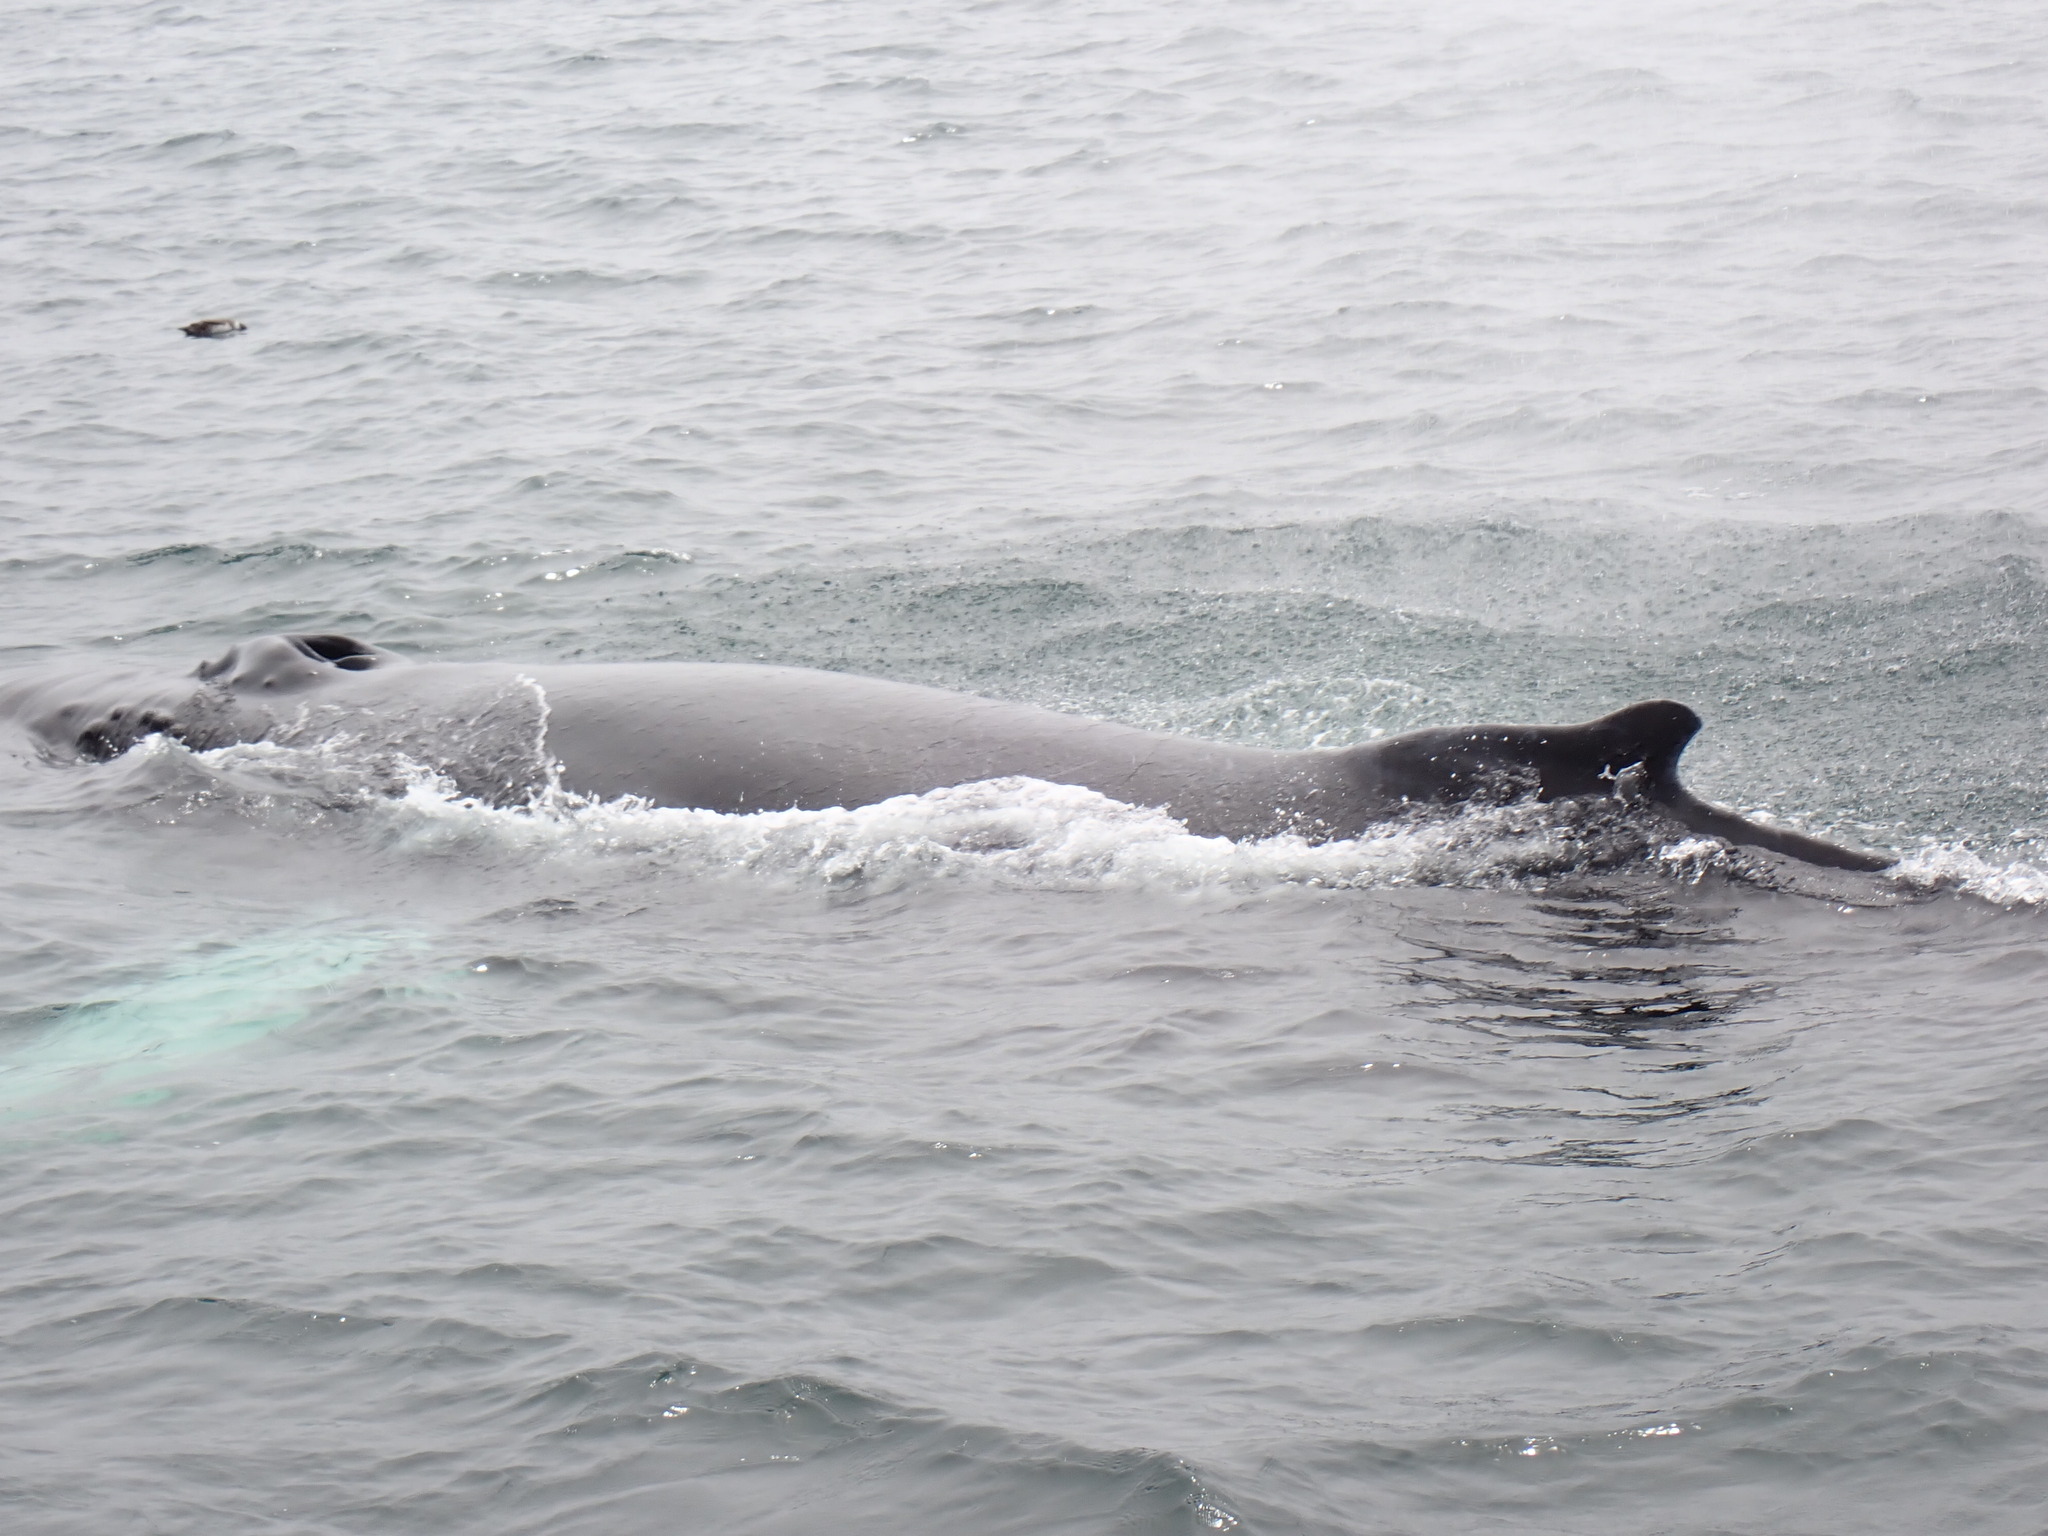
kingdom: Animalia
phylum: Chordata
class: Mammalia
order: Cetacea
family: Balaenopteridae
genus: Megaptera
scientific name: Megaptera novaeangliae
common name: Humpback whale
